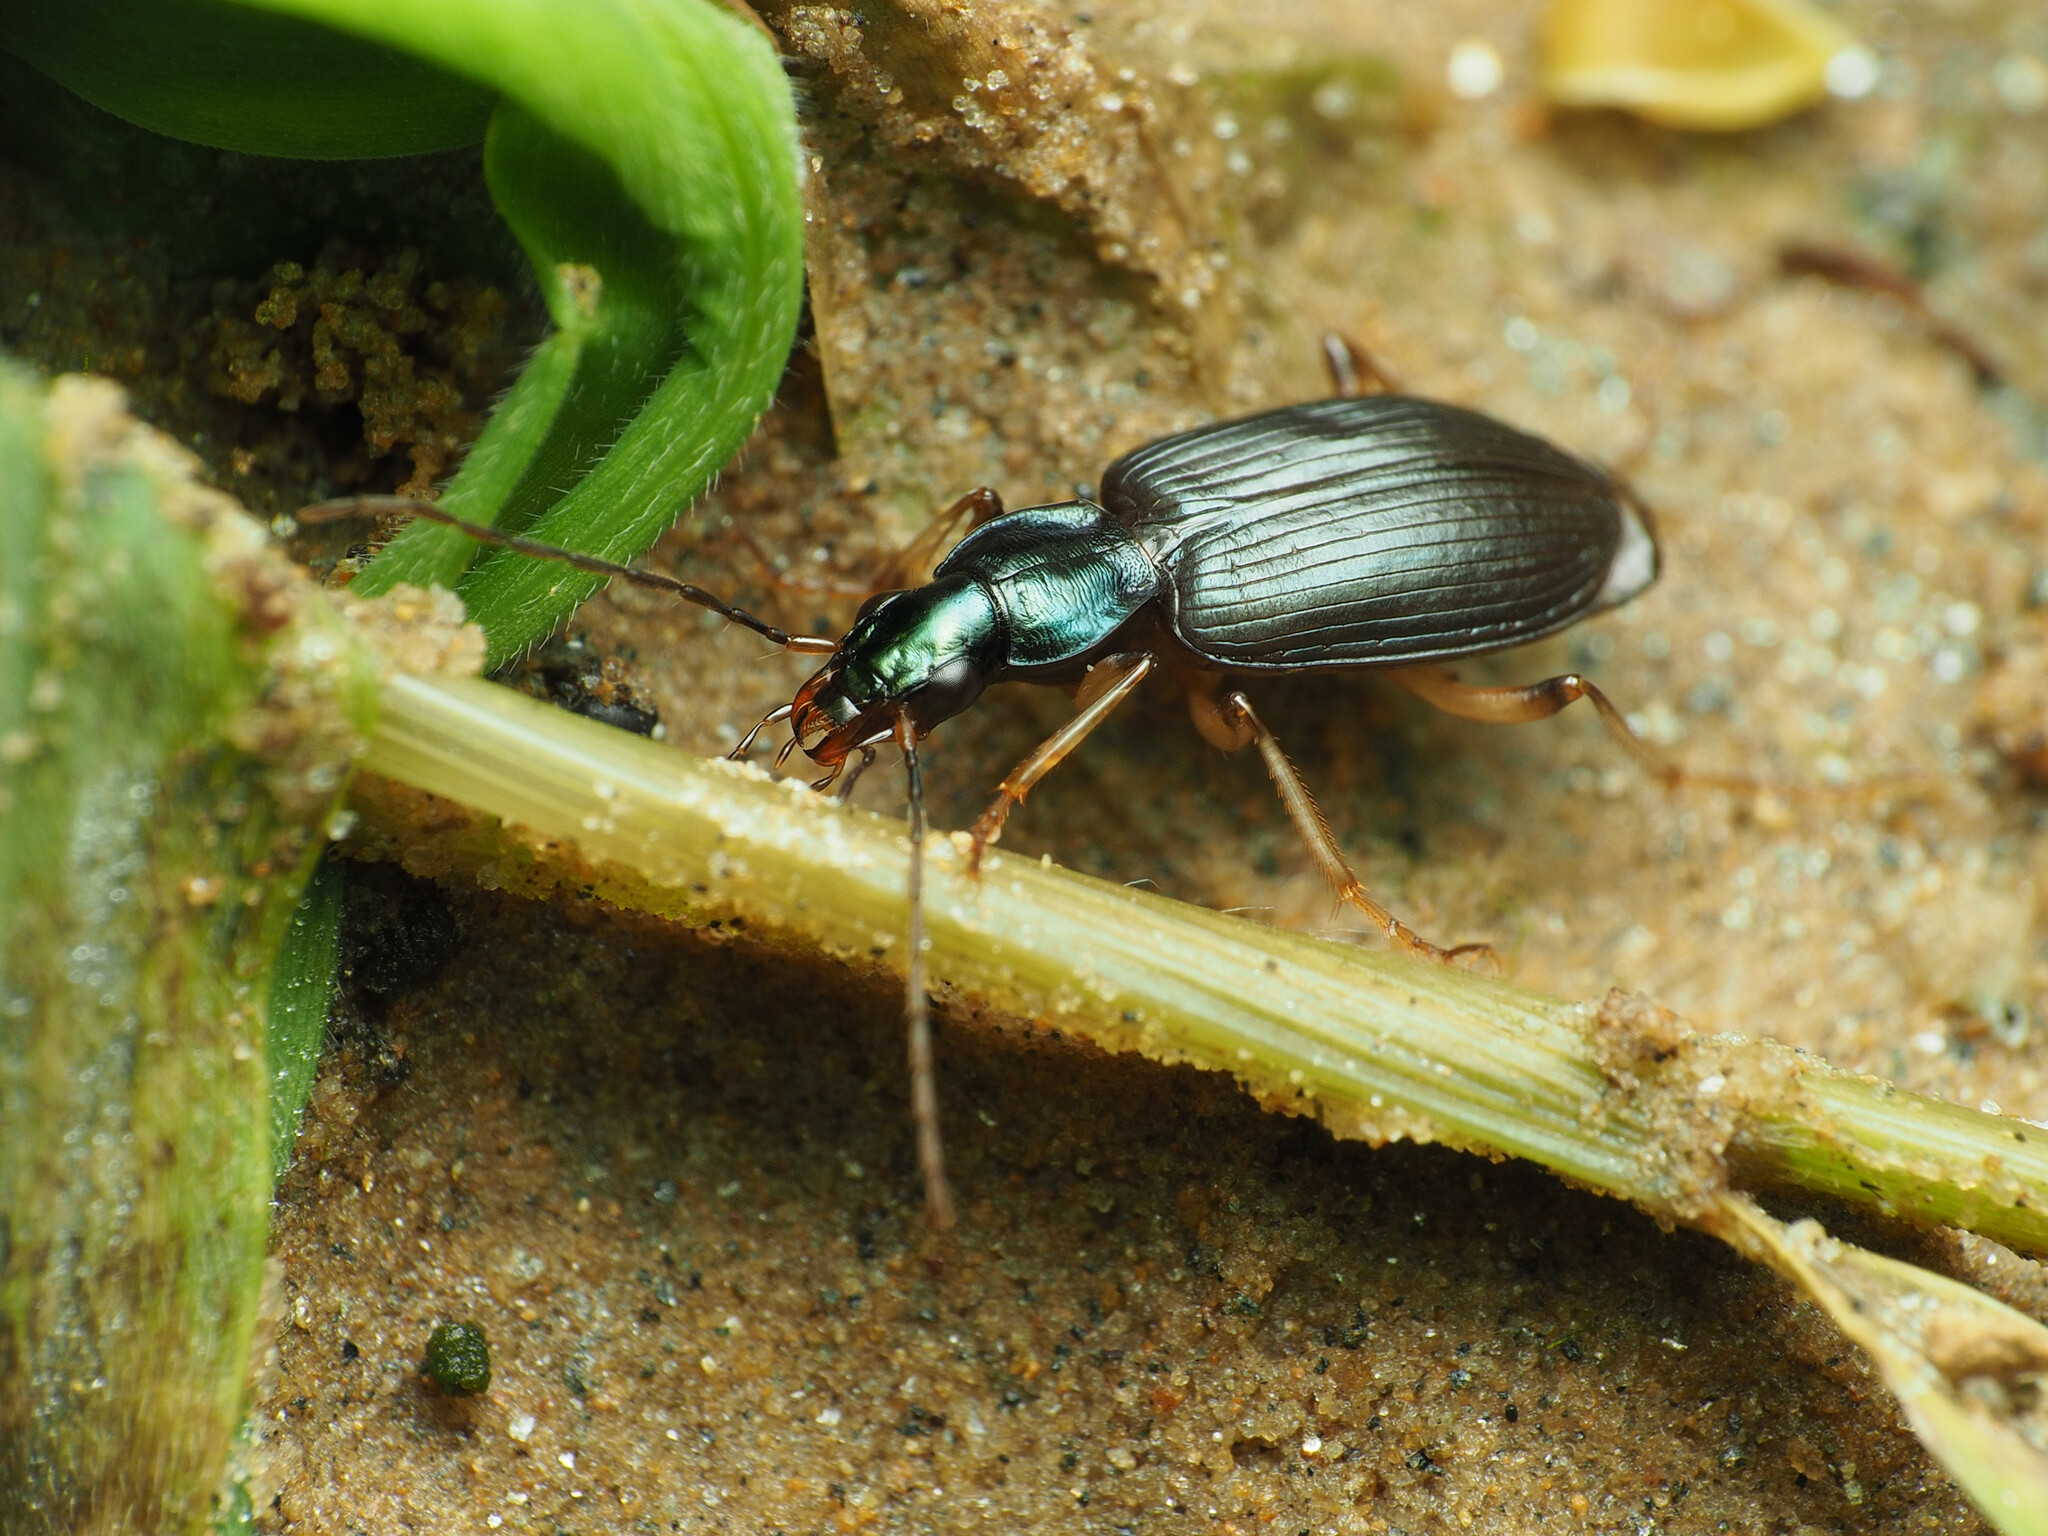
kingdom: Animalia
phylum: Arthropoda
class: Insecta
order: Coleoptera
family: Carabidae
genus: Agonum
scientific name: Agonum extensicolle
